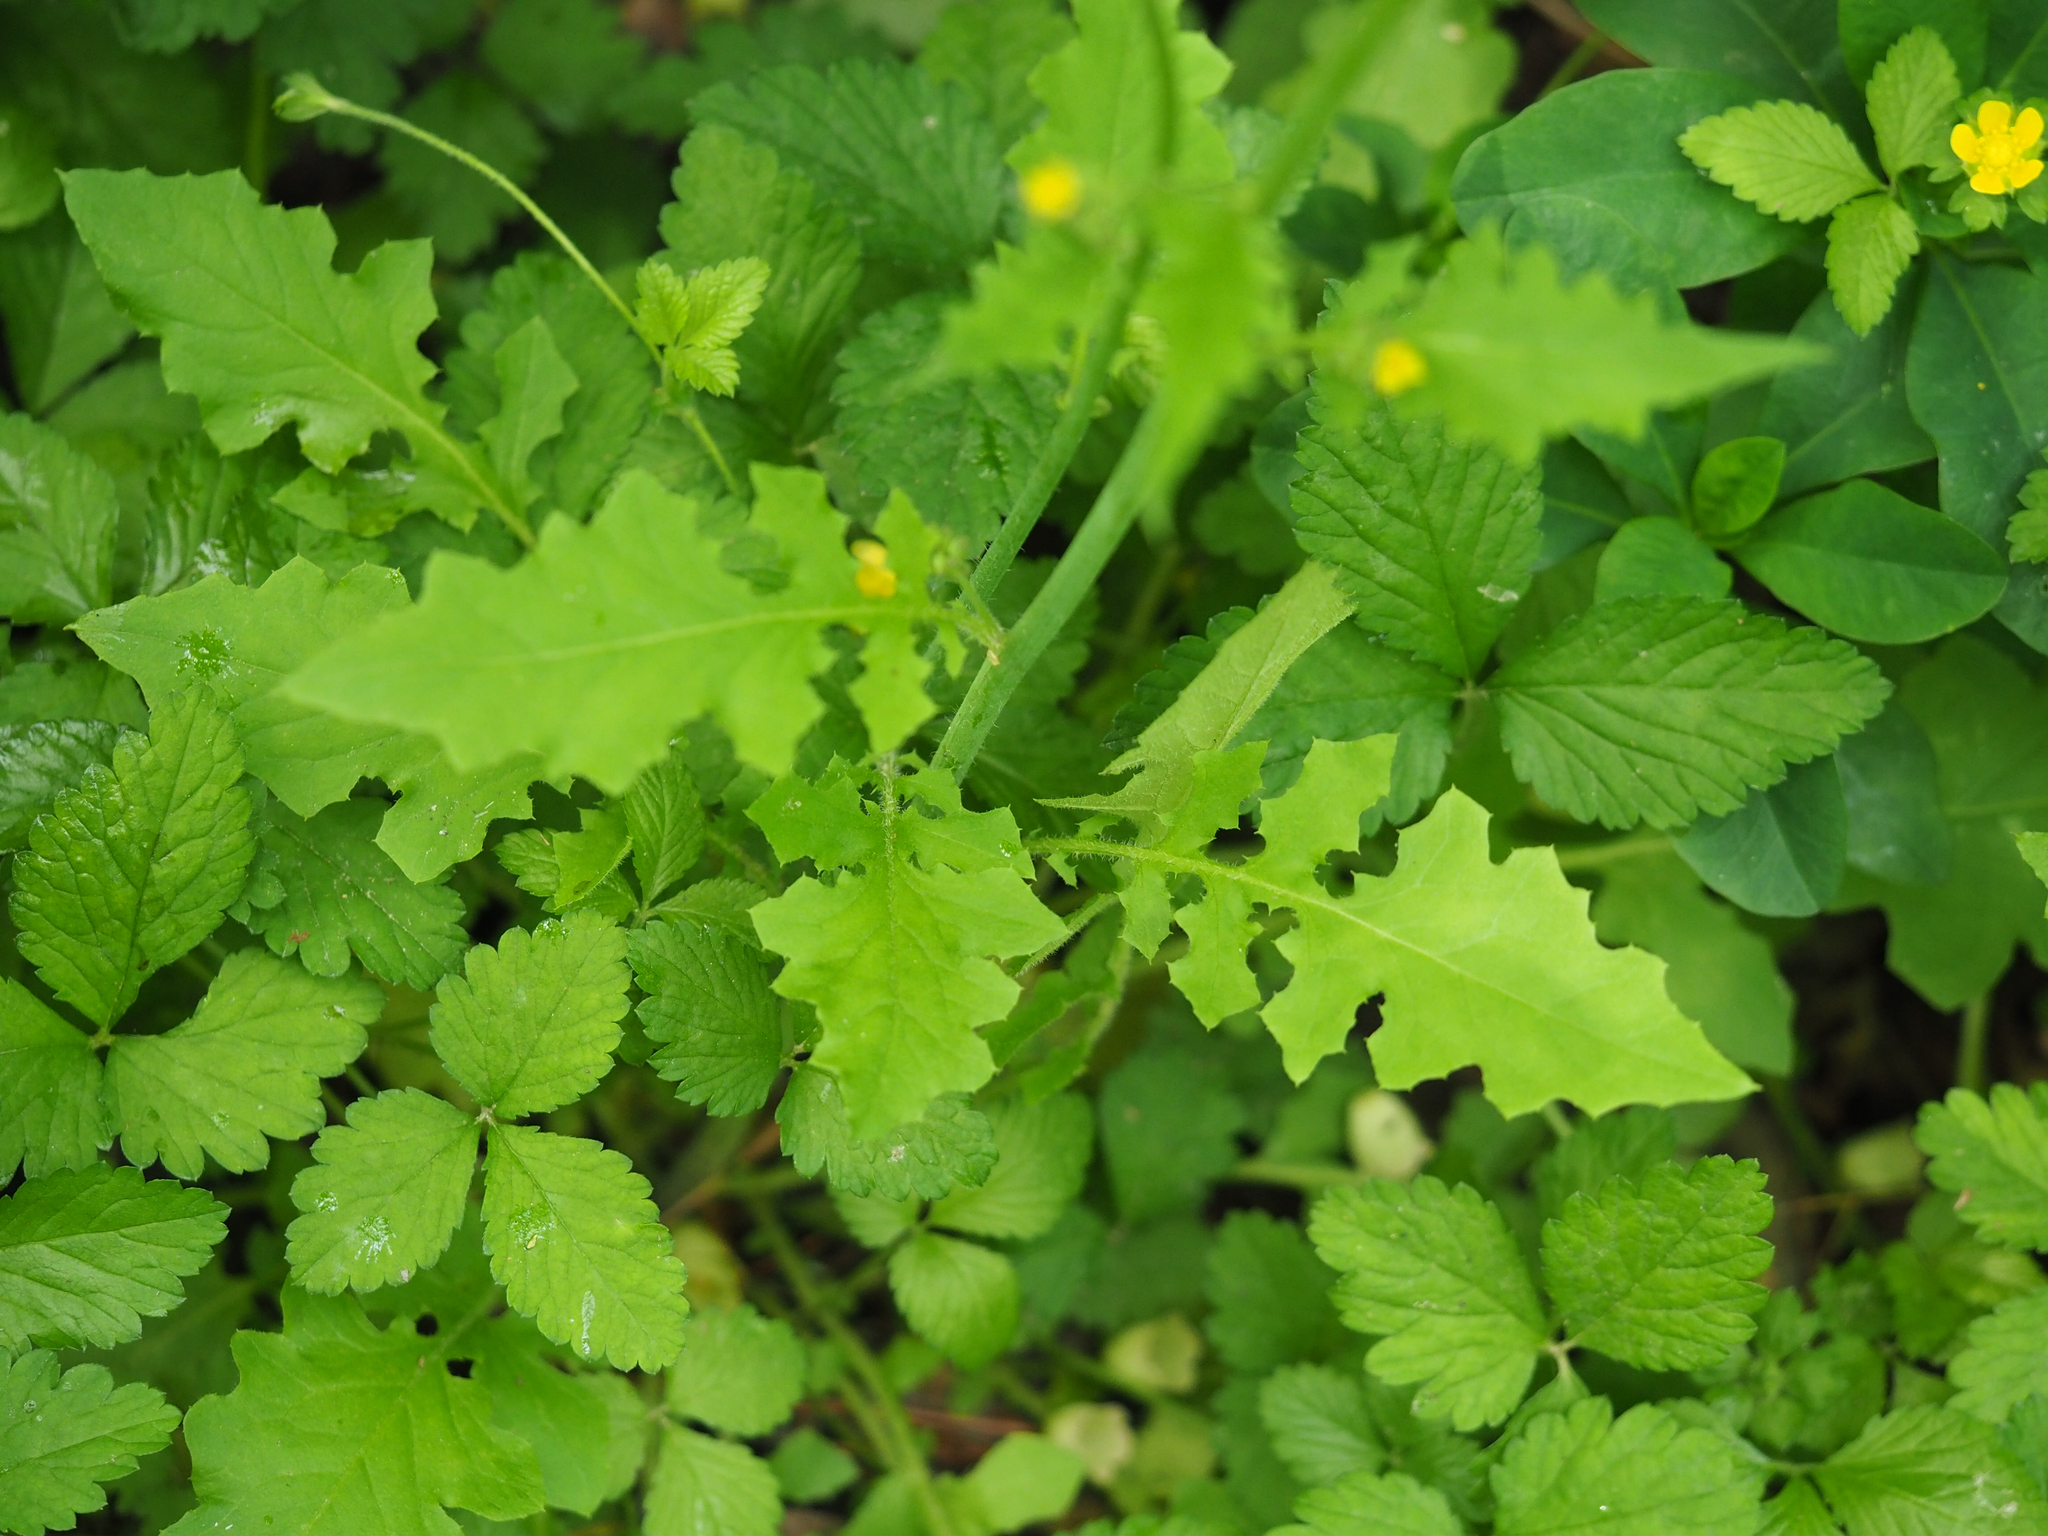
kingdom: Plantae
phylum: Tracheophyta
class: Magnoliopsida
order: Asterales
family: Asteraceae
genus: Youngia
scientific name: Youngia japonica
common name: Oriental false hawksbeard
